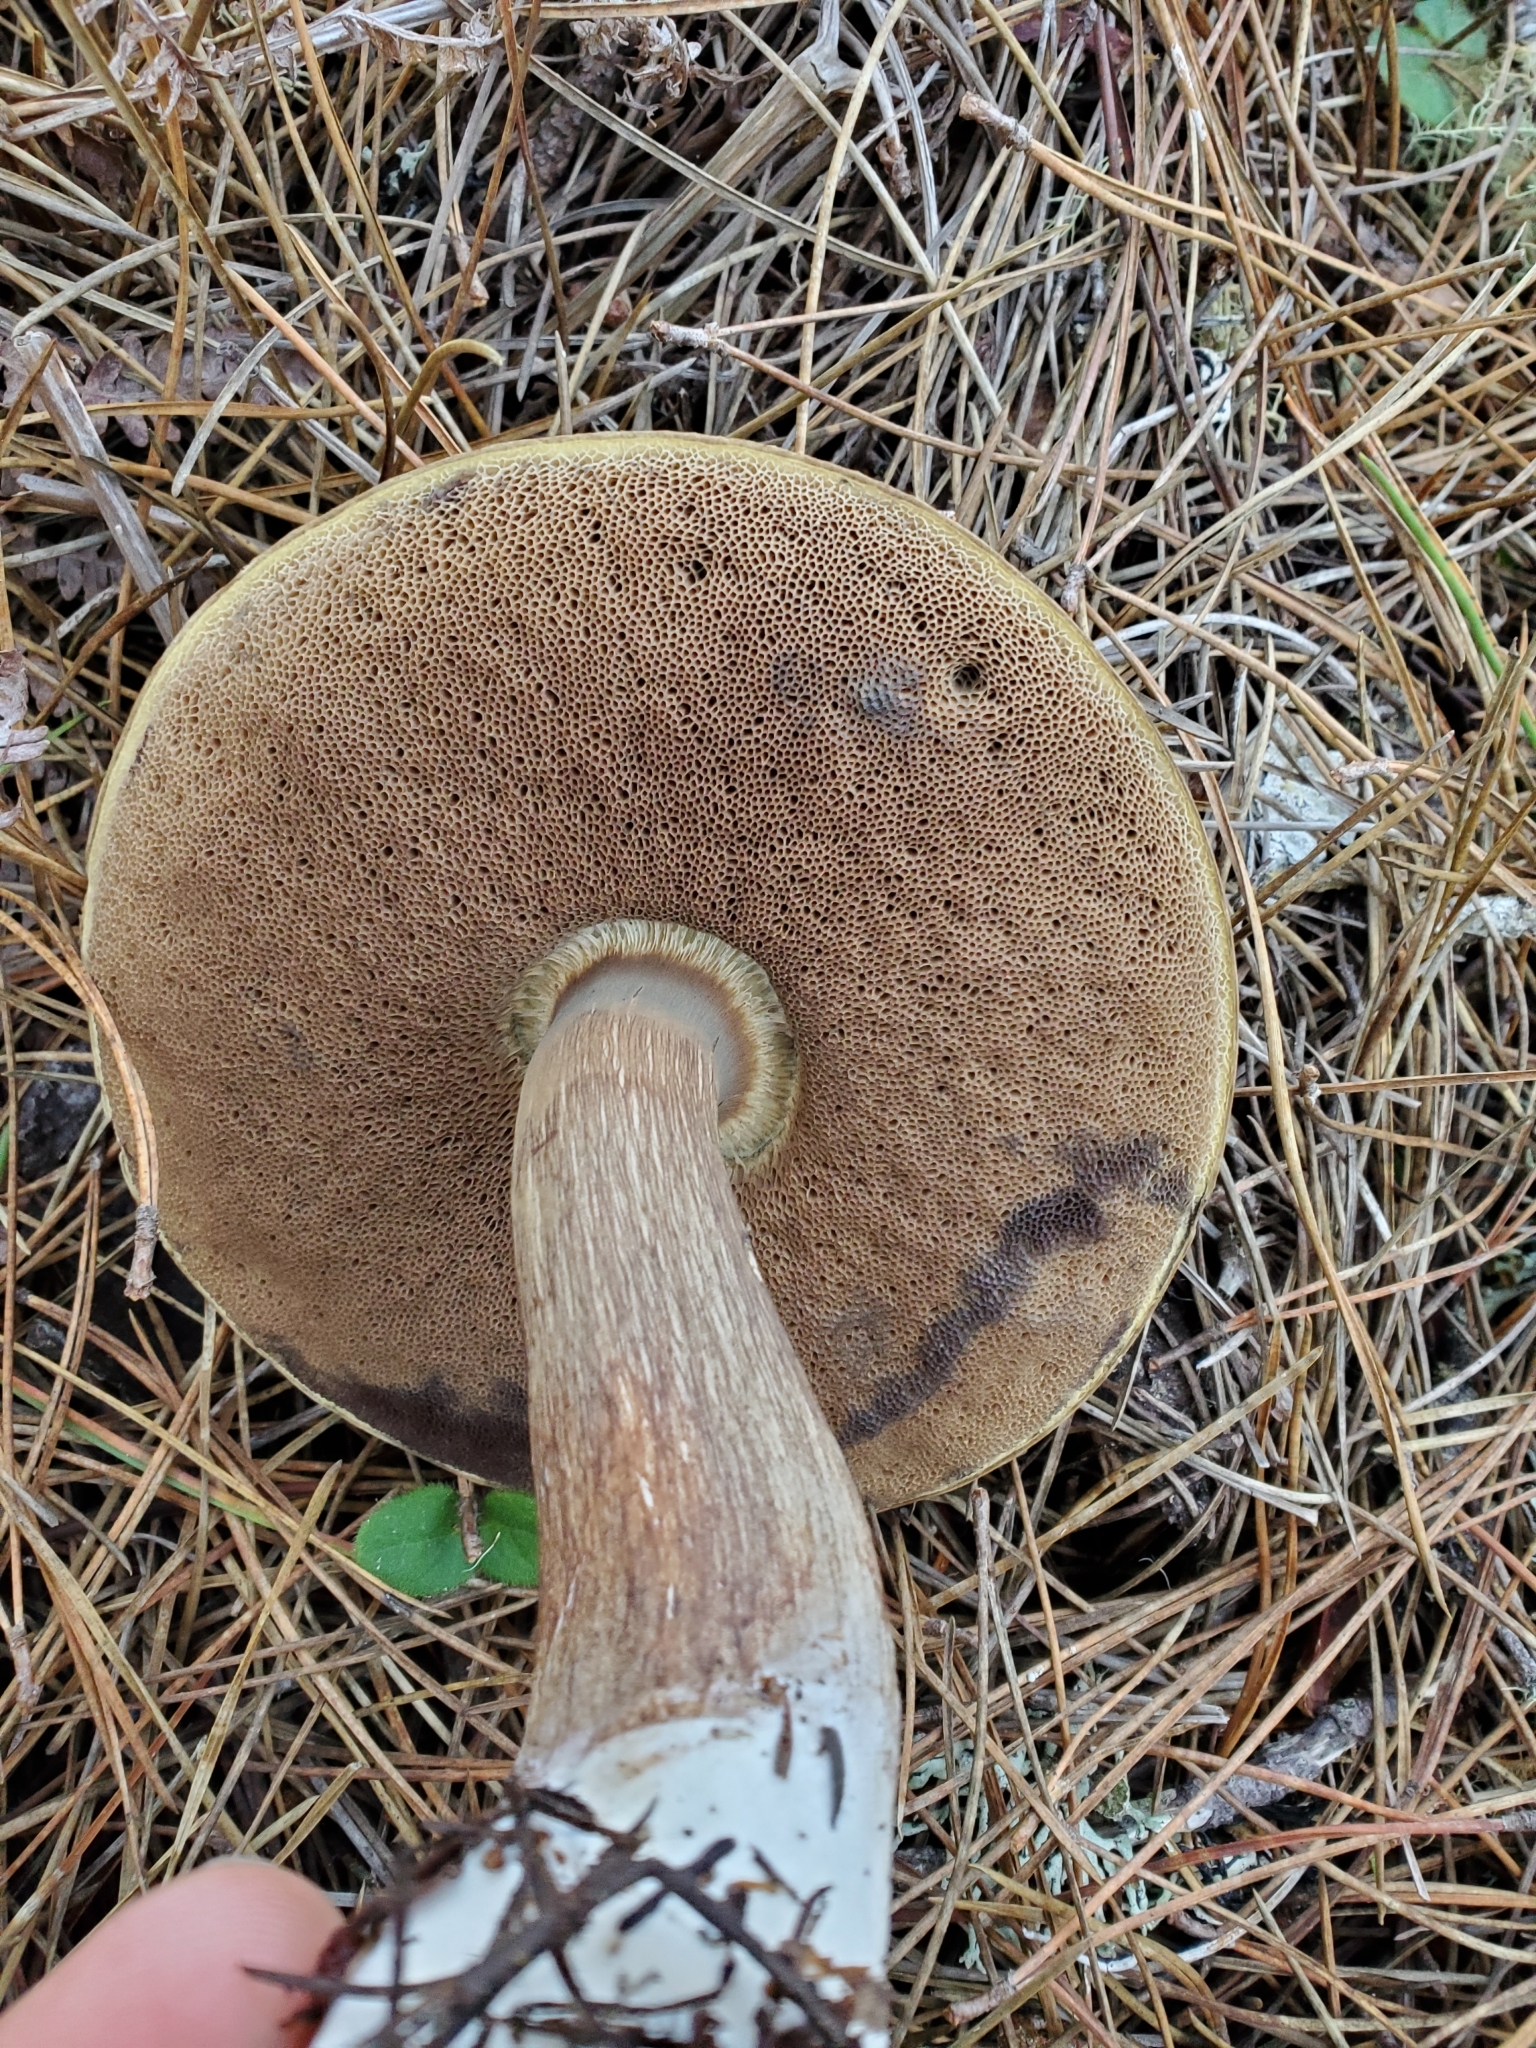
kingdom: Fungi
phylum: Basidiomycota
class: Agaricomycetes
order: Boletales
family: Boletaceae
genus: Porphyrellus
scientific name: Porphyrellus porphyrosporus
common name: Dusky bolete
